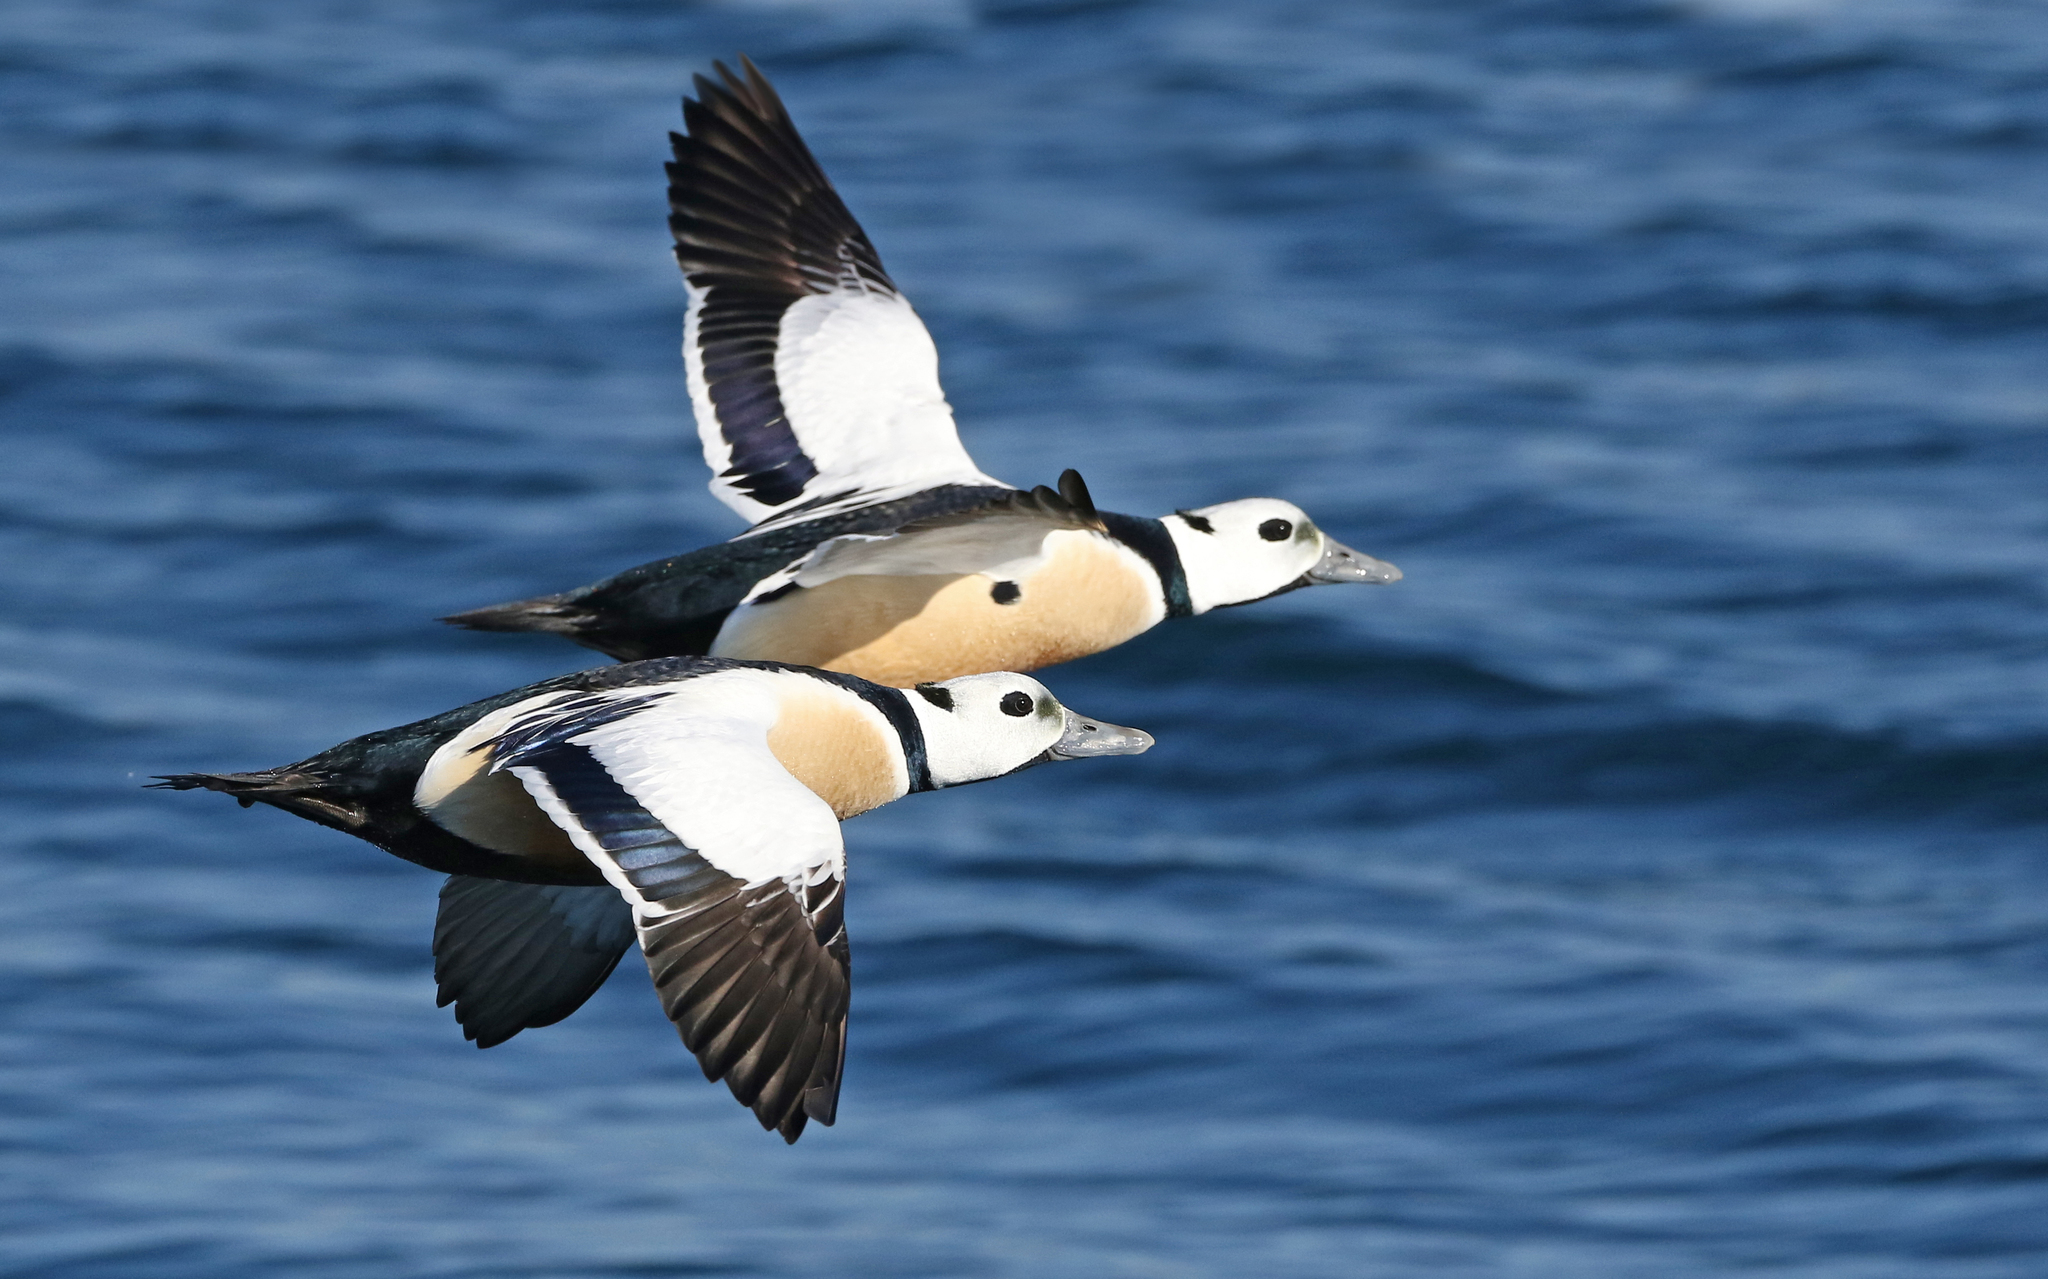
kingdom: Animalia
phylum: Chordata
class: Aves
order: Anseriformes
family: Anatidae
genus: Polysticta
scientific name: Polysticta stelleri
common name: Steller's eider
